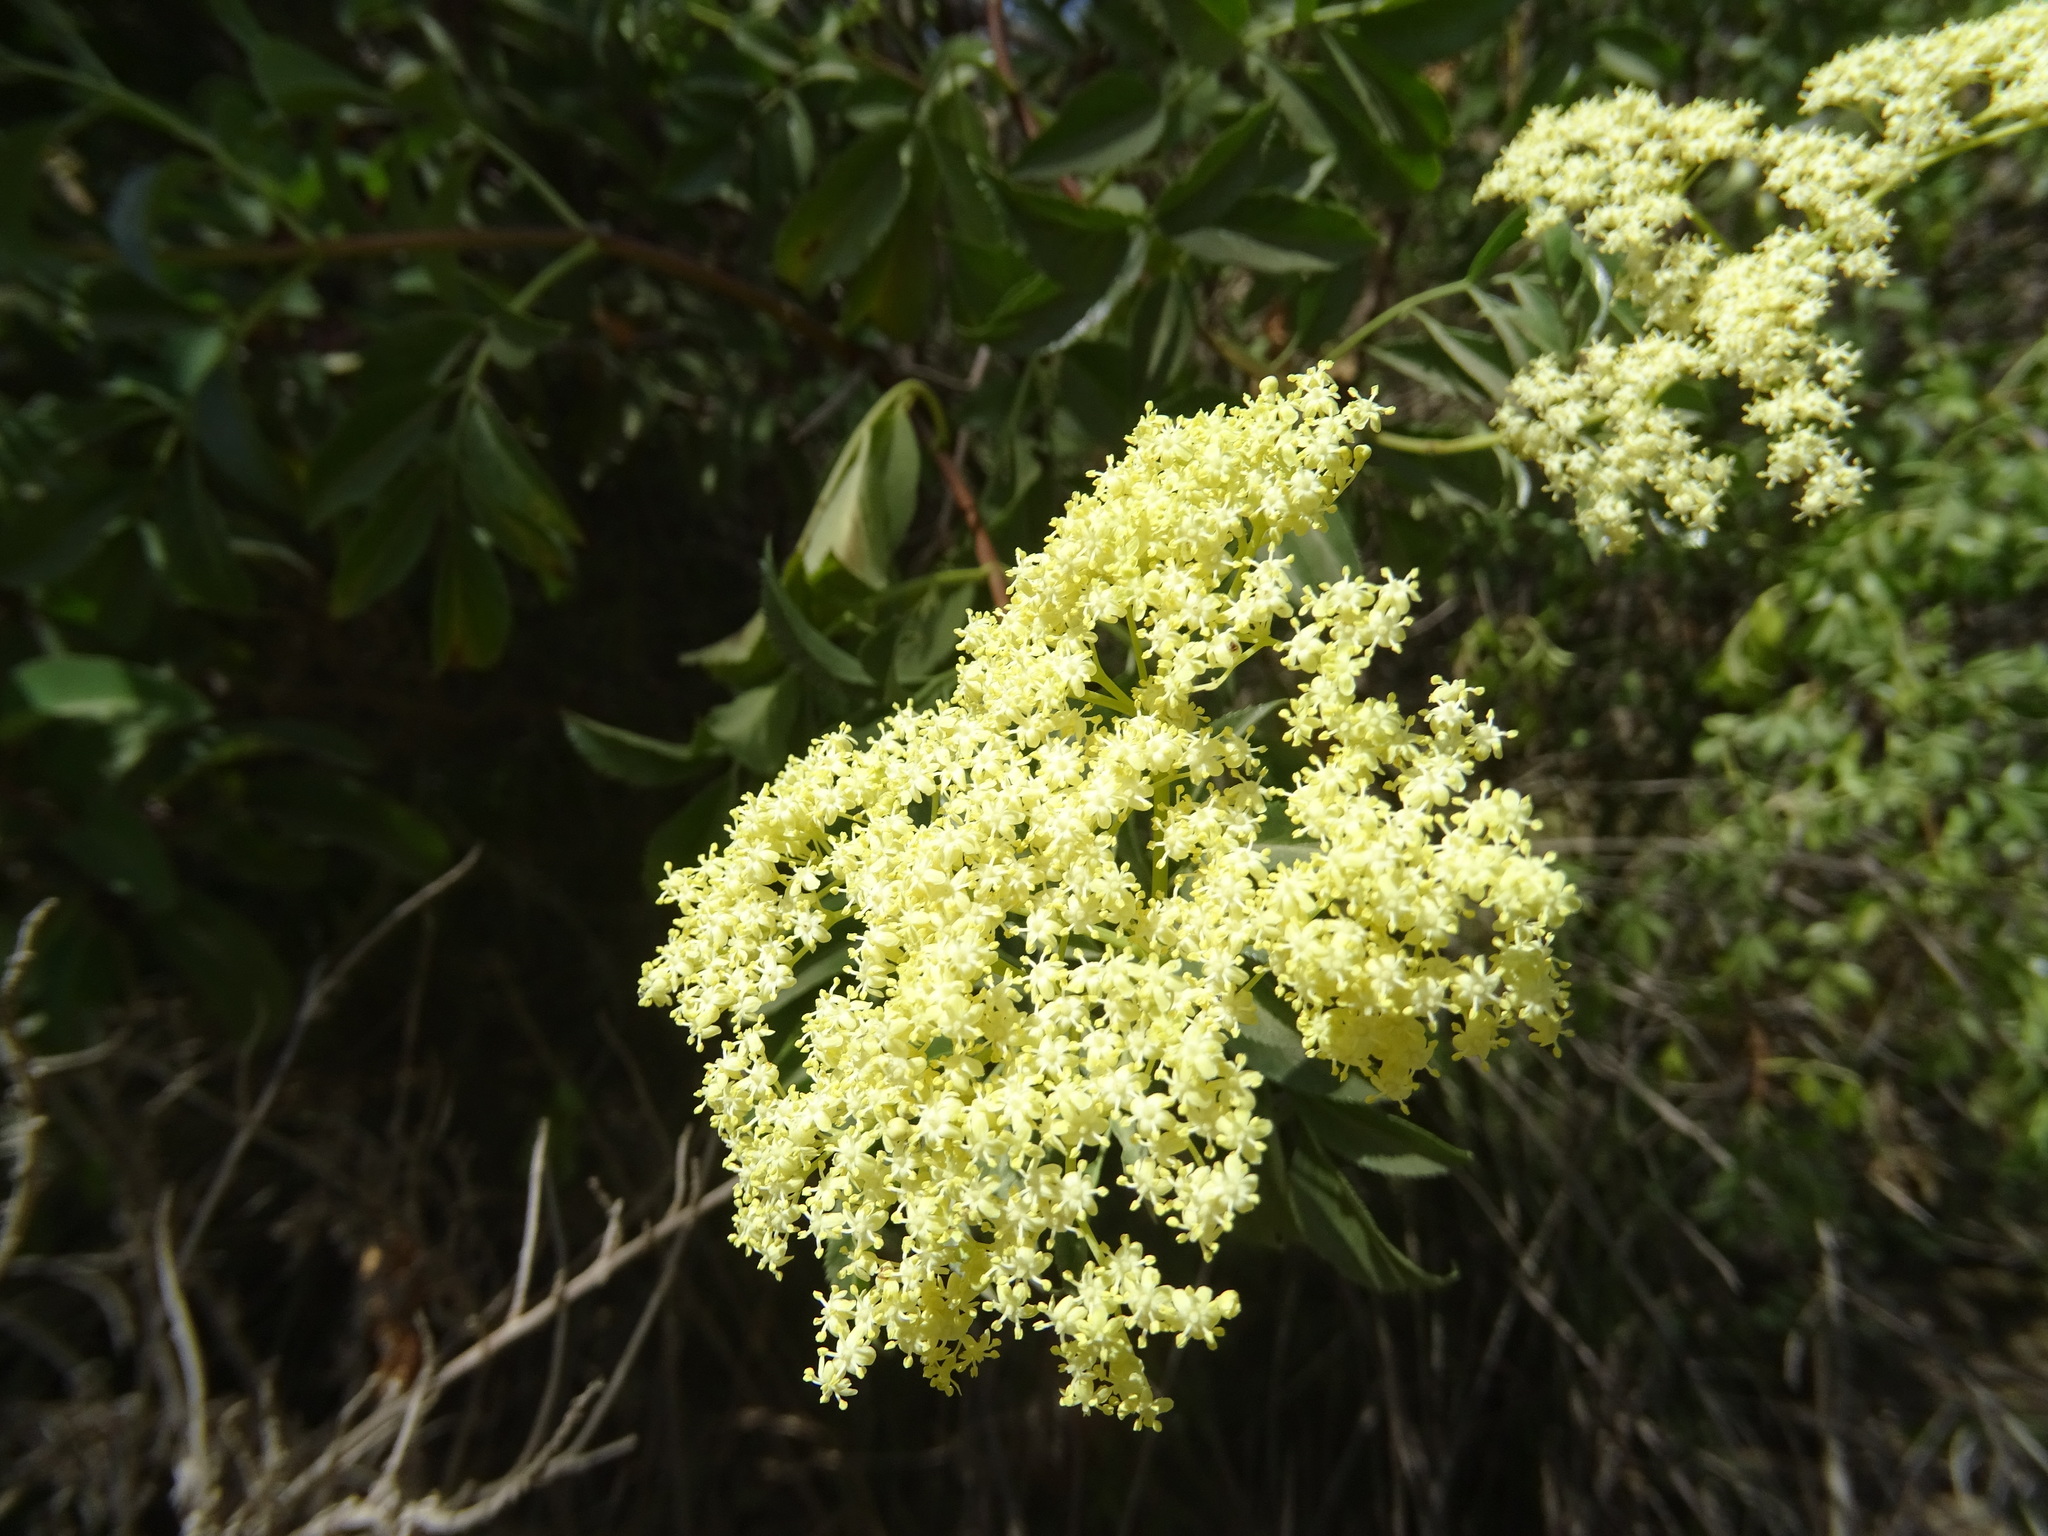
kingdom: Plantae
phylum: Tracheophyta
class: Magnoliopsida
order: Dipsacales
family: Viburnaceae
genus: Sambucus
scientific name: Sambucus cerulea
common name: Blue elder
